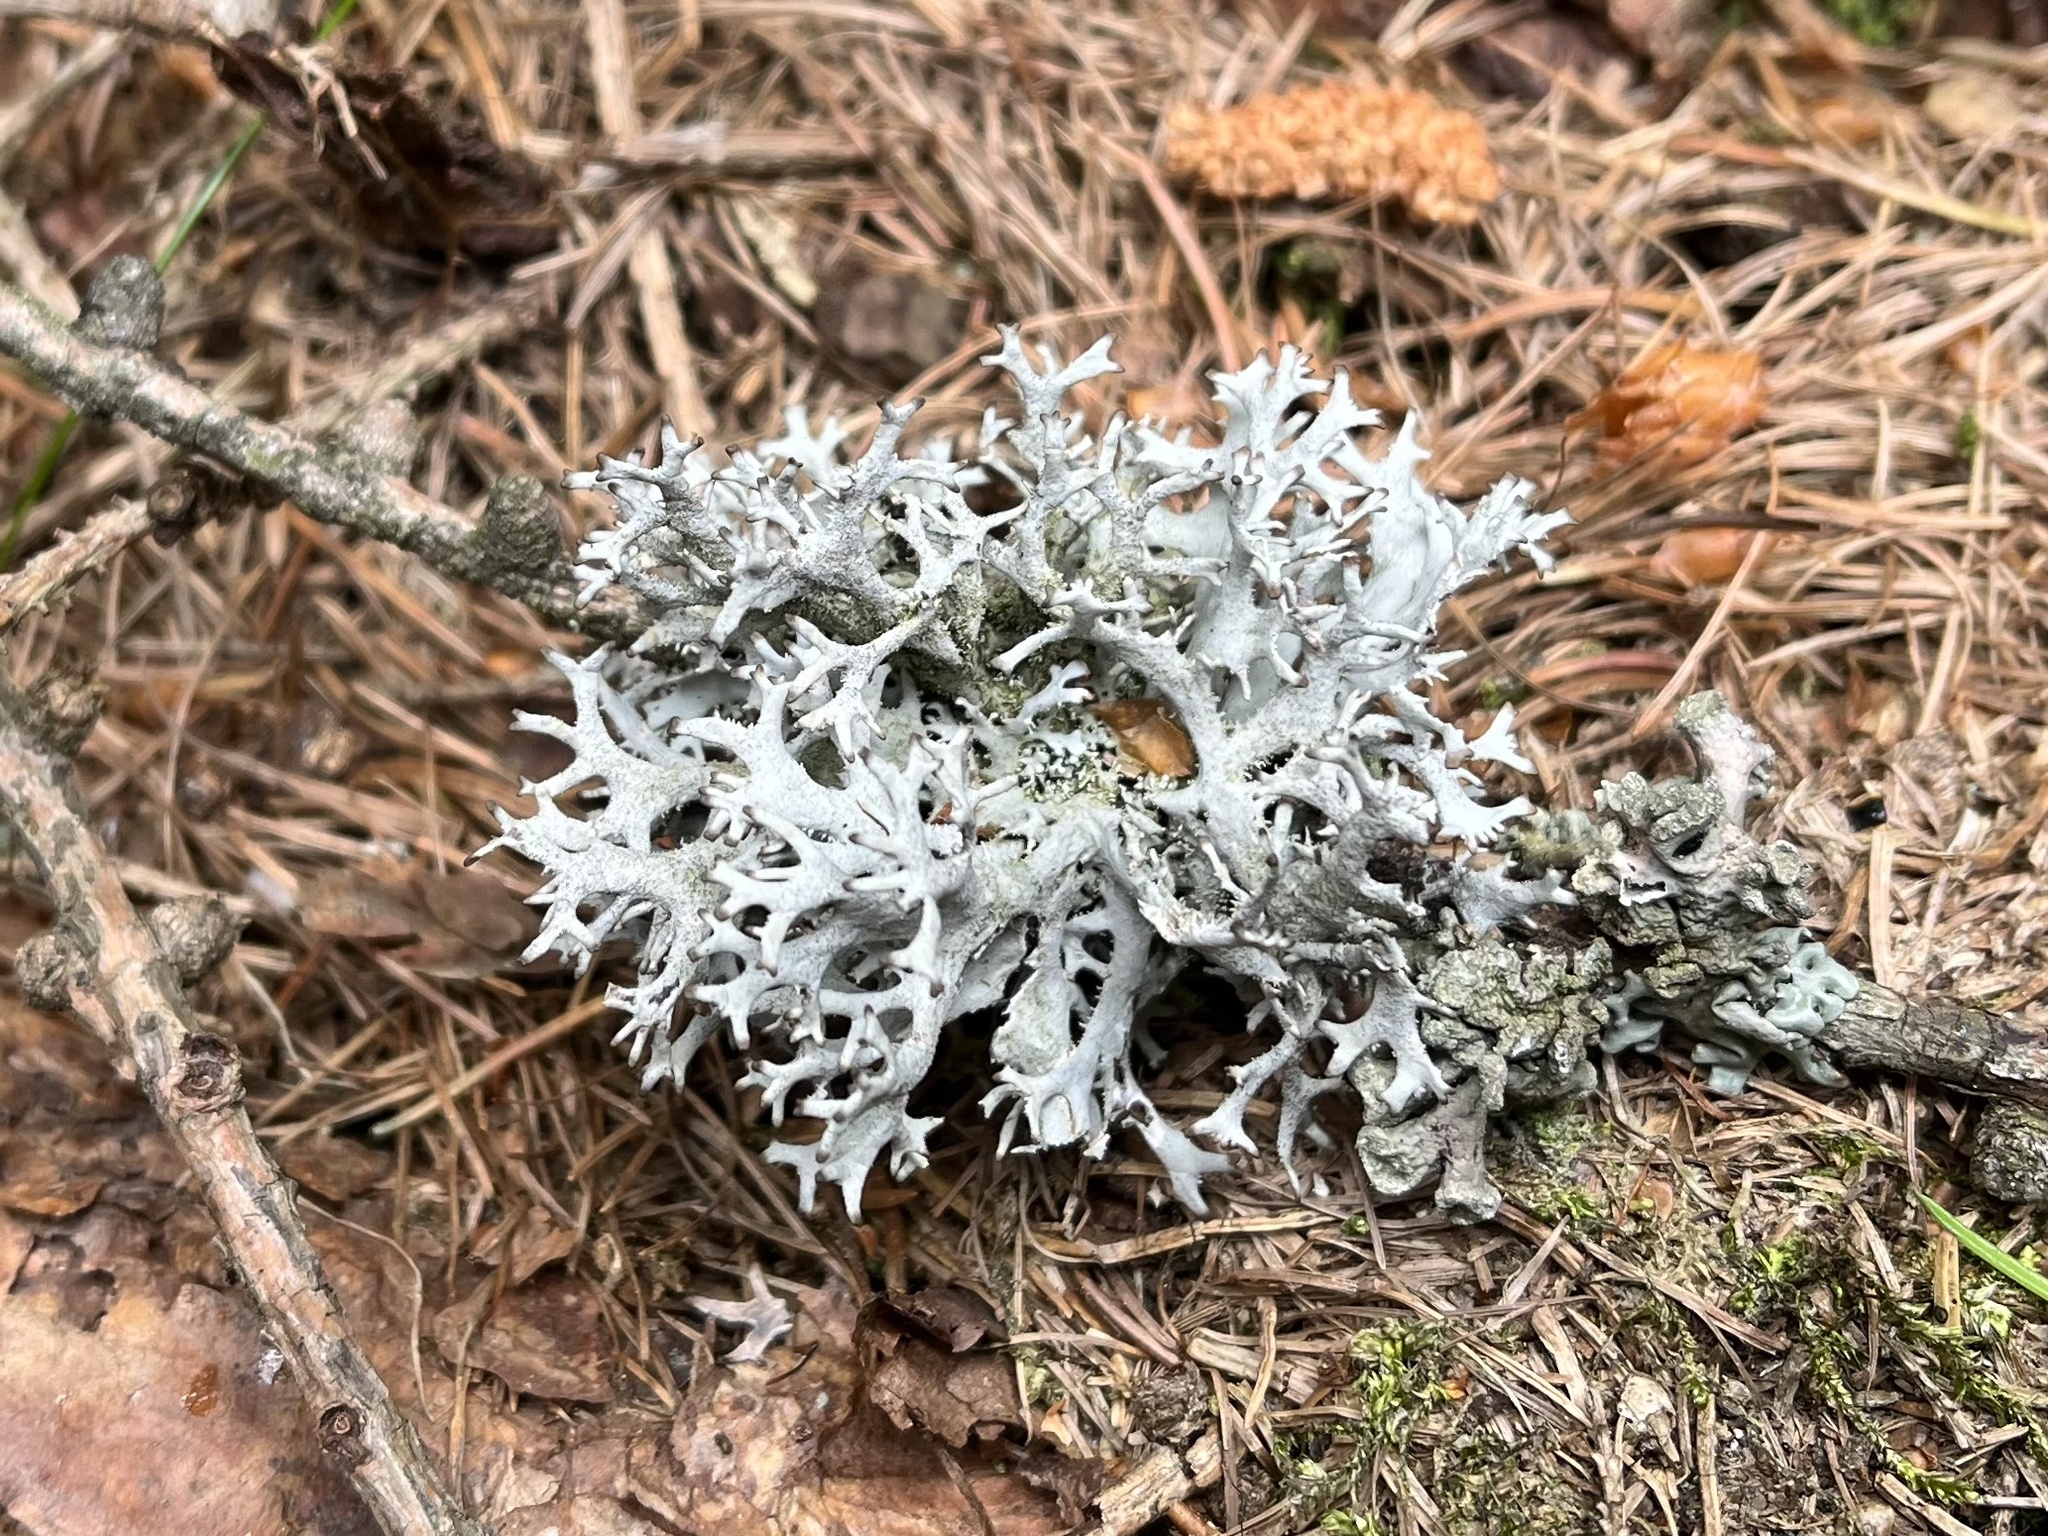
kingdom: Fungi
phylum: Ascomycota
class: Lecanoromycetes
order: Lecanorales
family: Parmeliaceae
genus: Pseudevernia
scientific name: Pseudevernia furfuracea
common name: Tree moss
